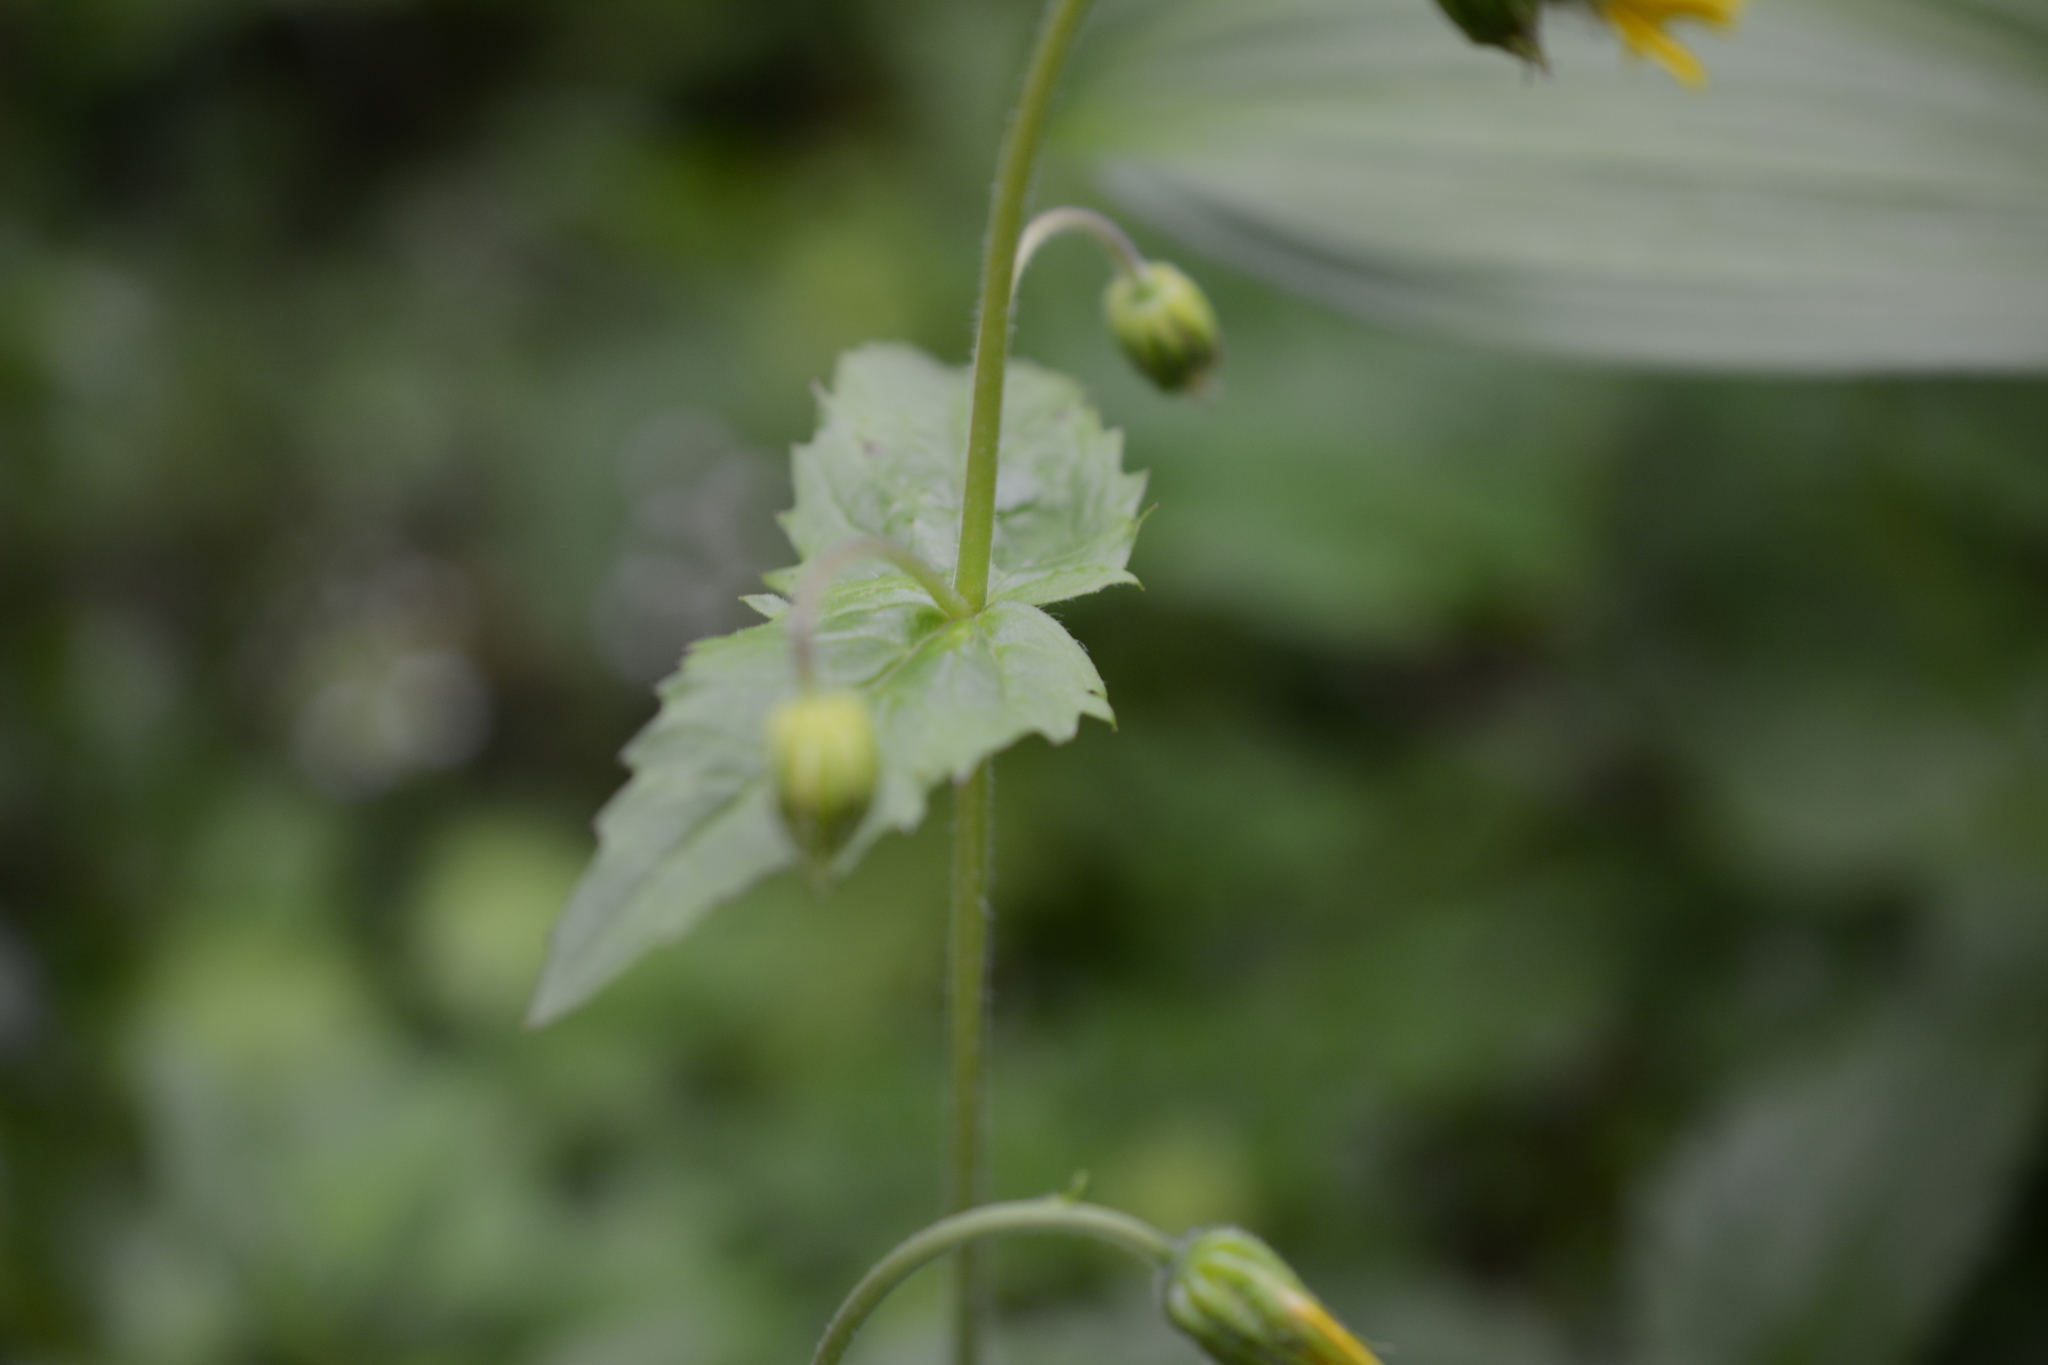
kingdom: Plantae
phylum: Tracheophyta
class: Magnoliopsida
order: Asterales
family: Asteraceae
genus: Arnica
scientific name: Arnica latifolia
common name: Arnica
